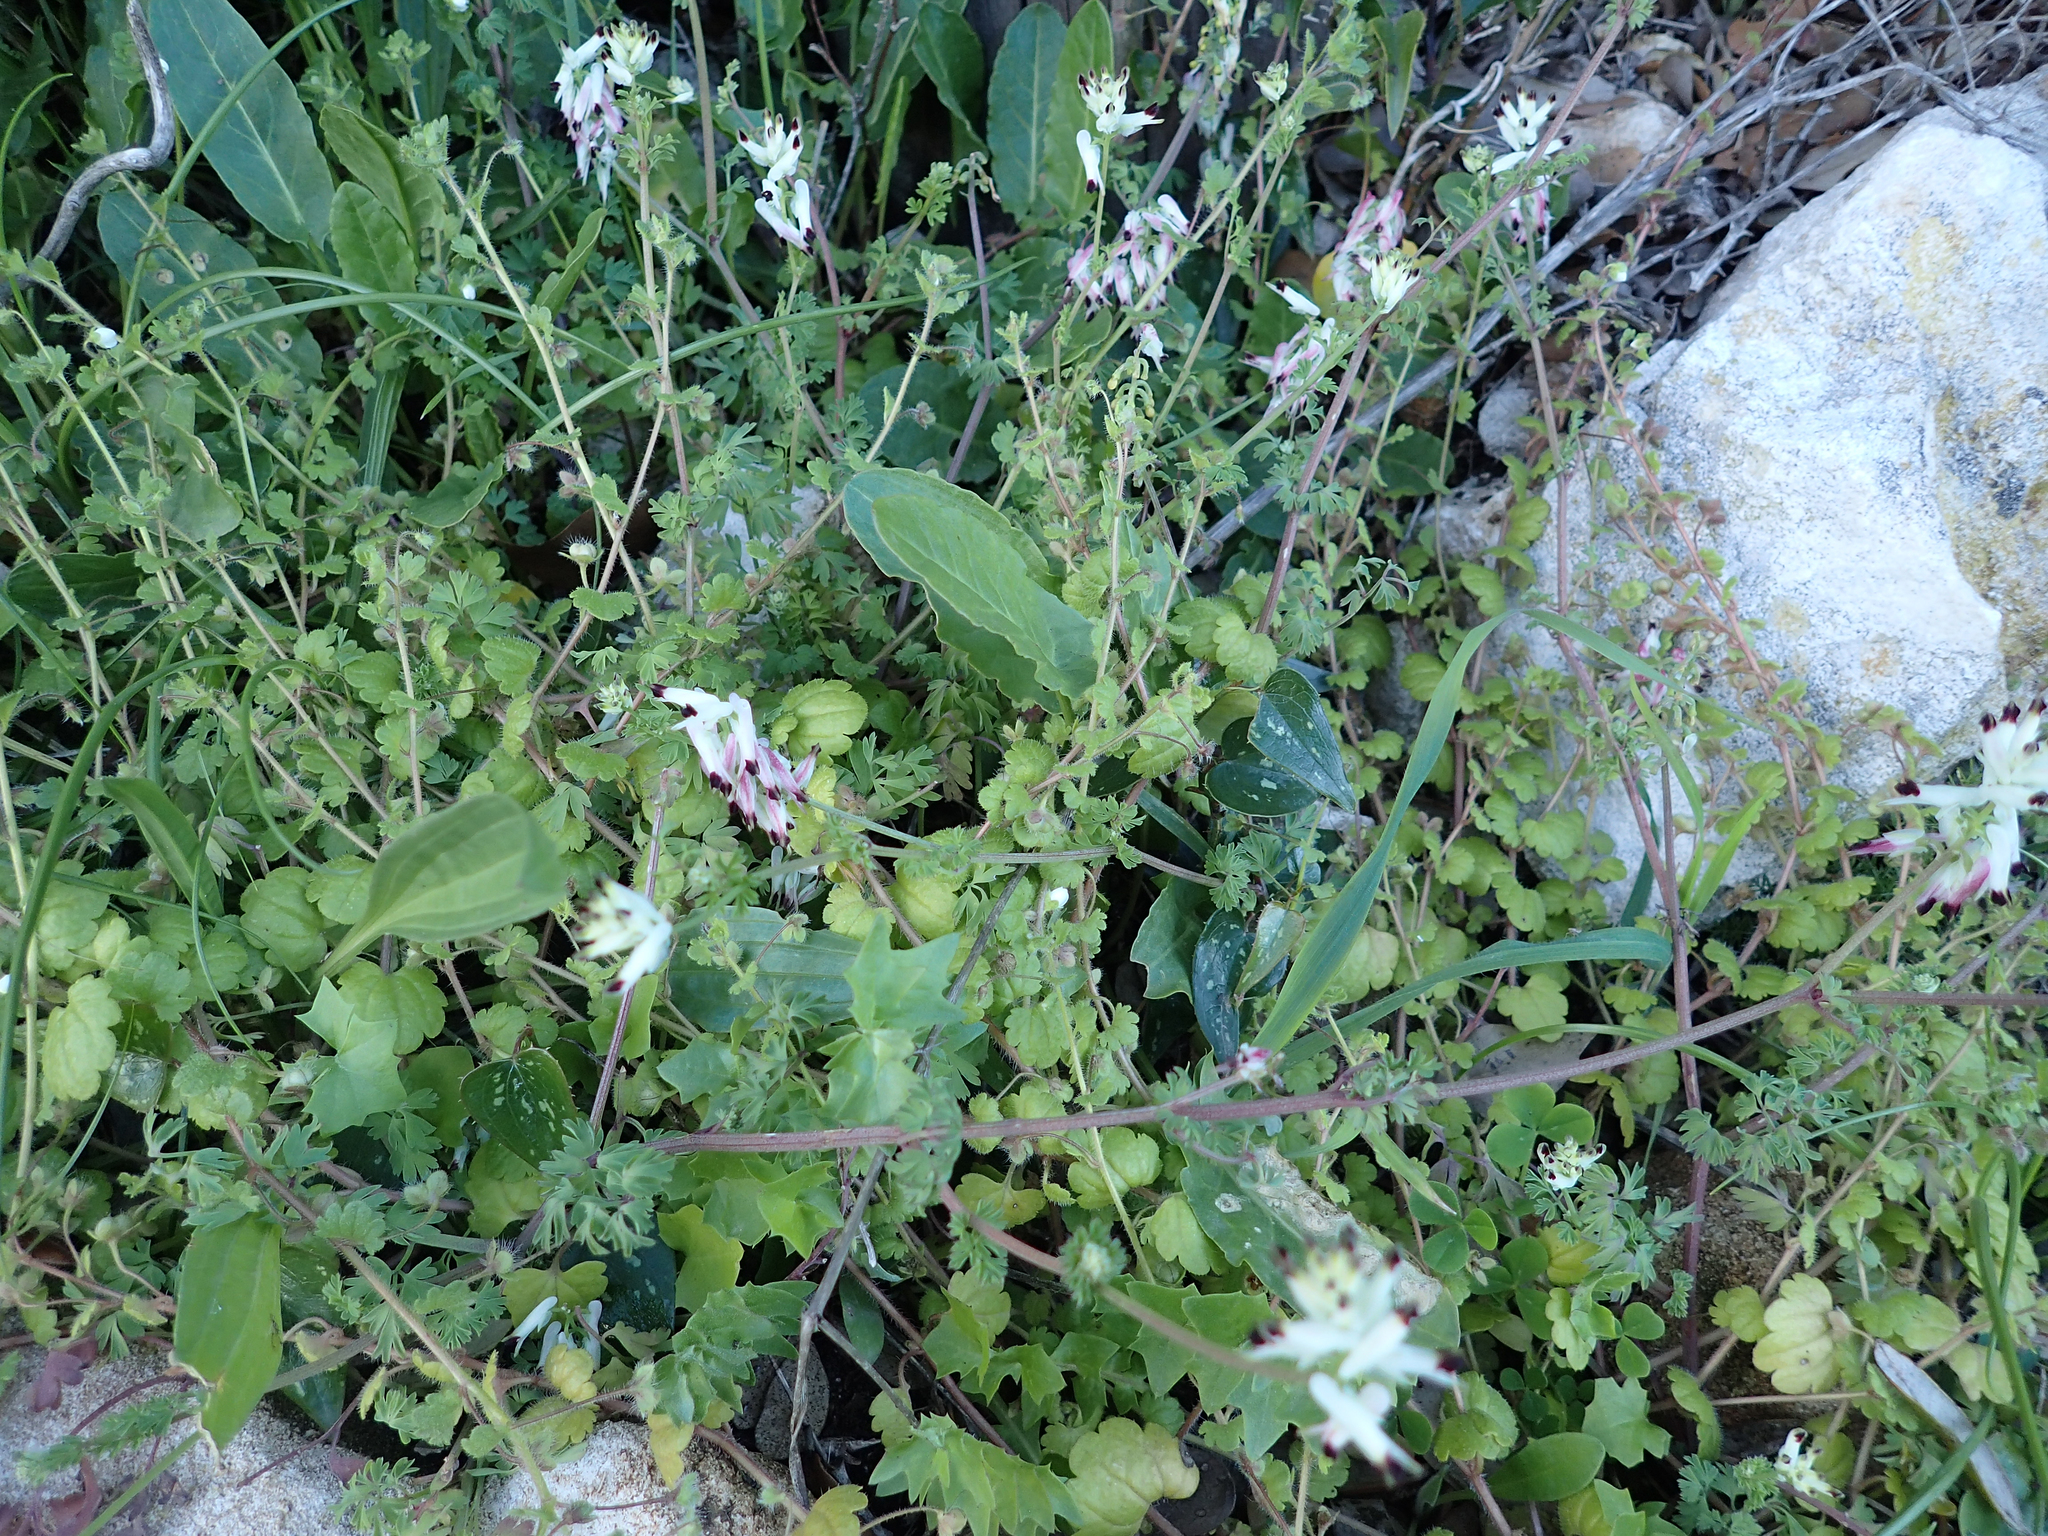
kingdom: Plantae
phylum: Tracheophyta
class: Magnoliopsida
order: Ranunculales
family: Papaveraceae
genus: Fumaria
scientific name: Fumaria capreolata
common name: White ramping-fumitory
